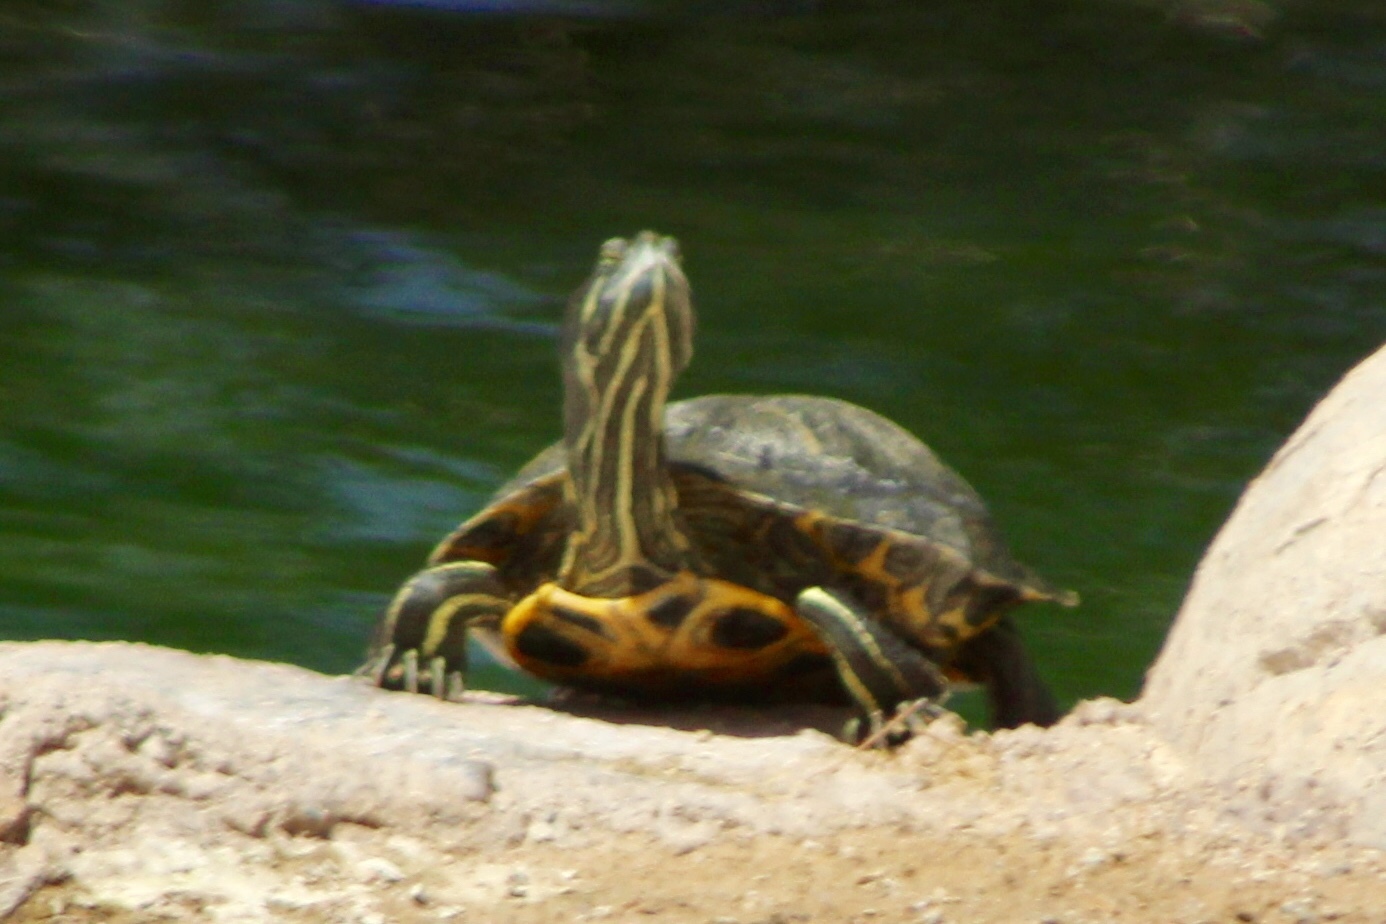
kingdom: Animalia
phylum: Chordata
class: Testudines
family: Emydidae
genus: Trachemys
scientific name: Trachemys scripta
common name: Slider
